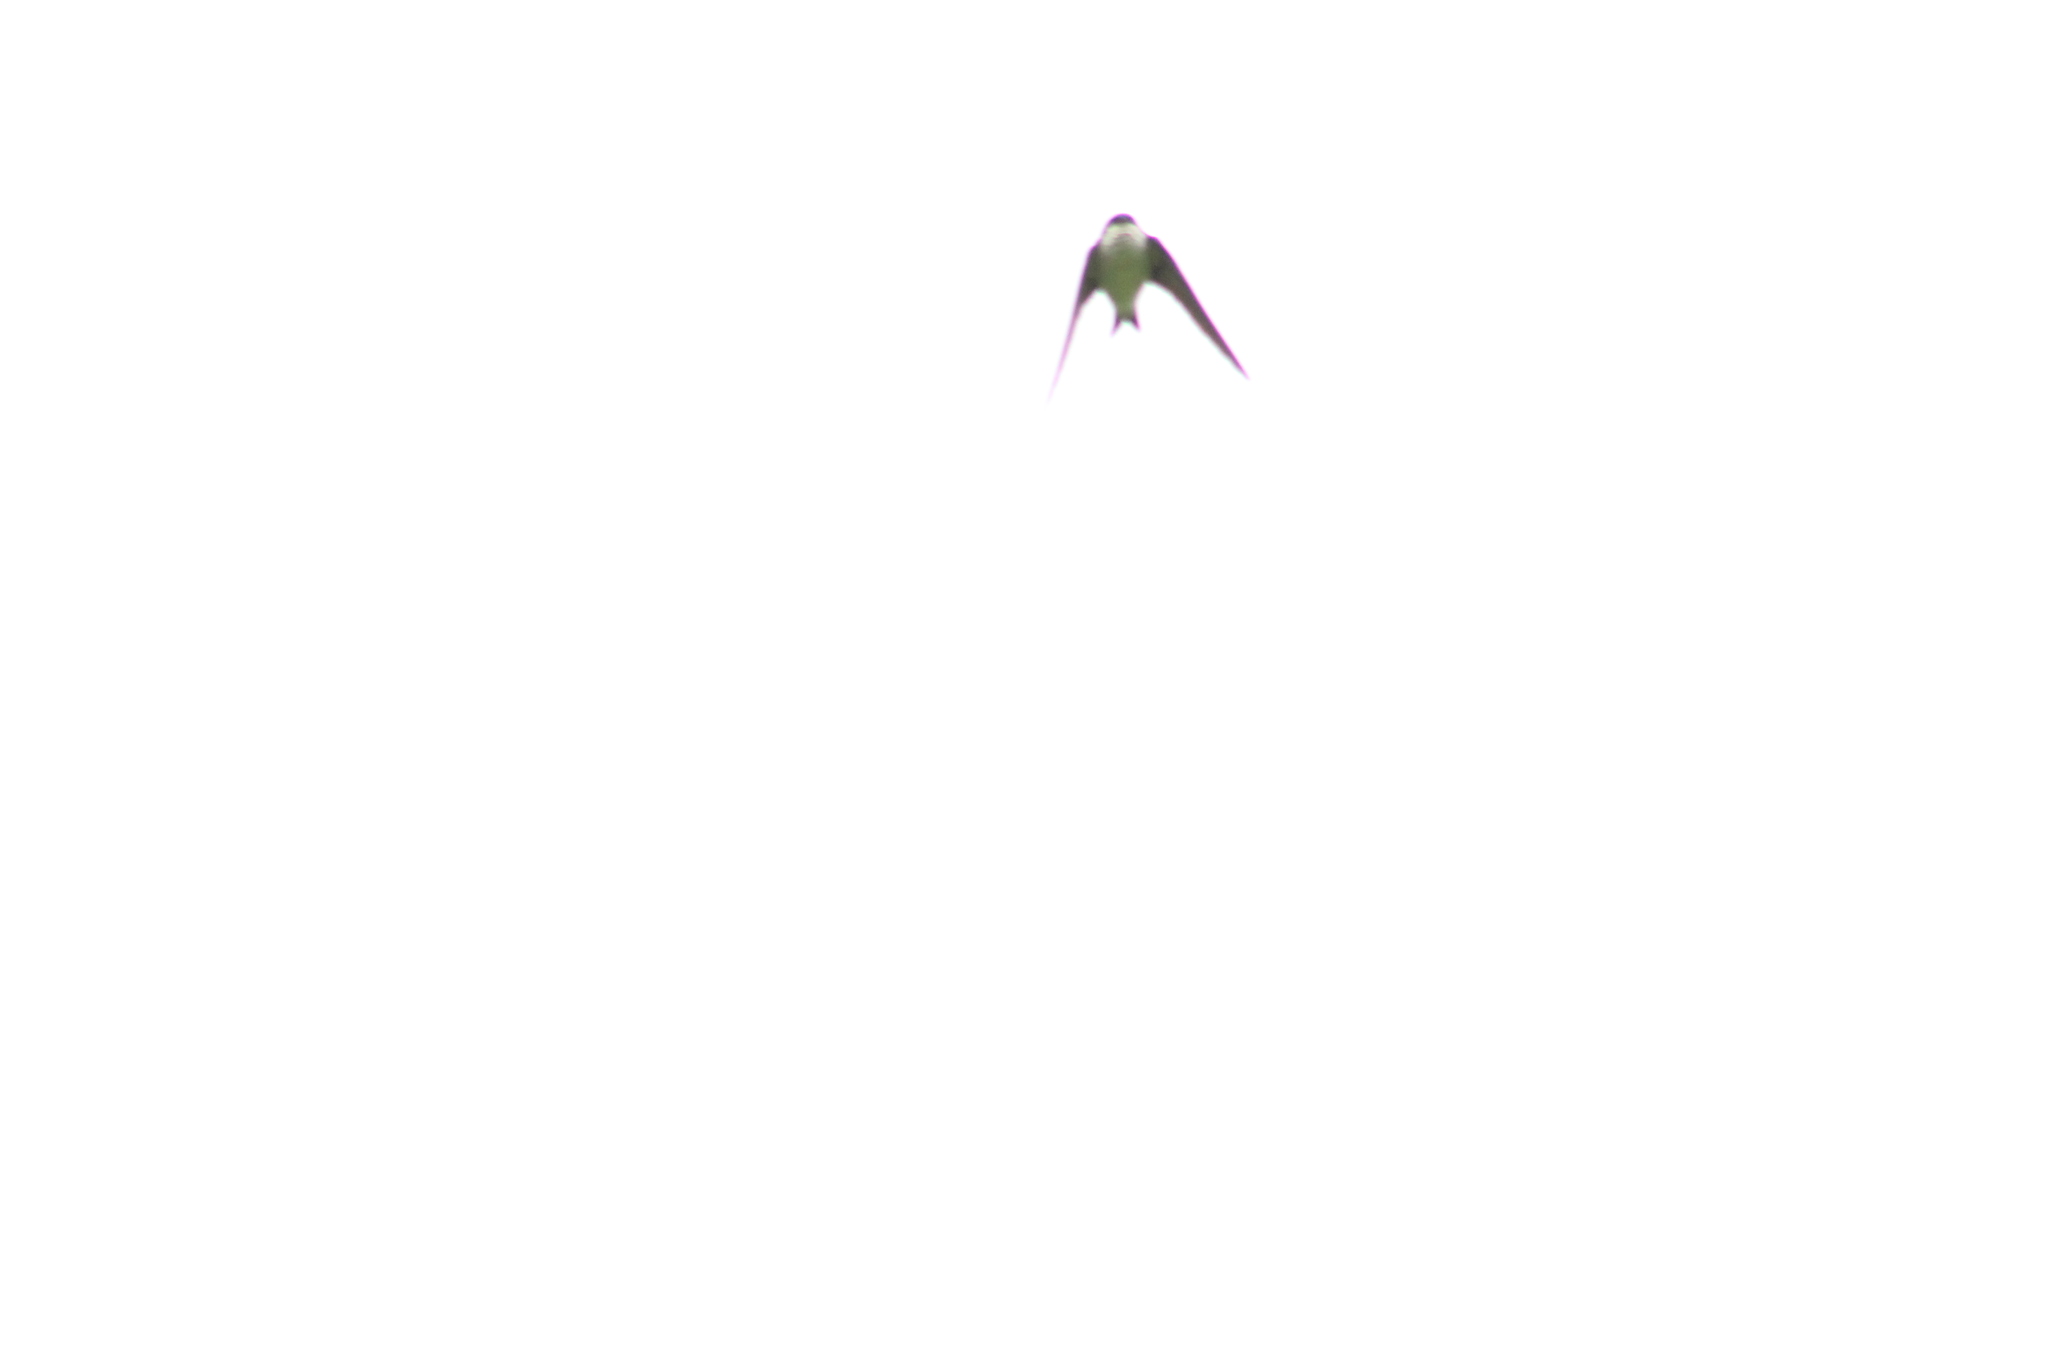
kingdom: Animalia
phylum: Chordata
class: Aves
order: Passeriformes
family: Hirundinidae
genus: Delichon
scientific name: Delichon urbicum
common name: Common house martin
